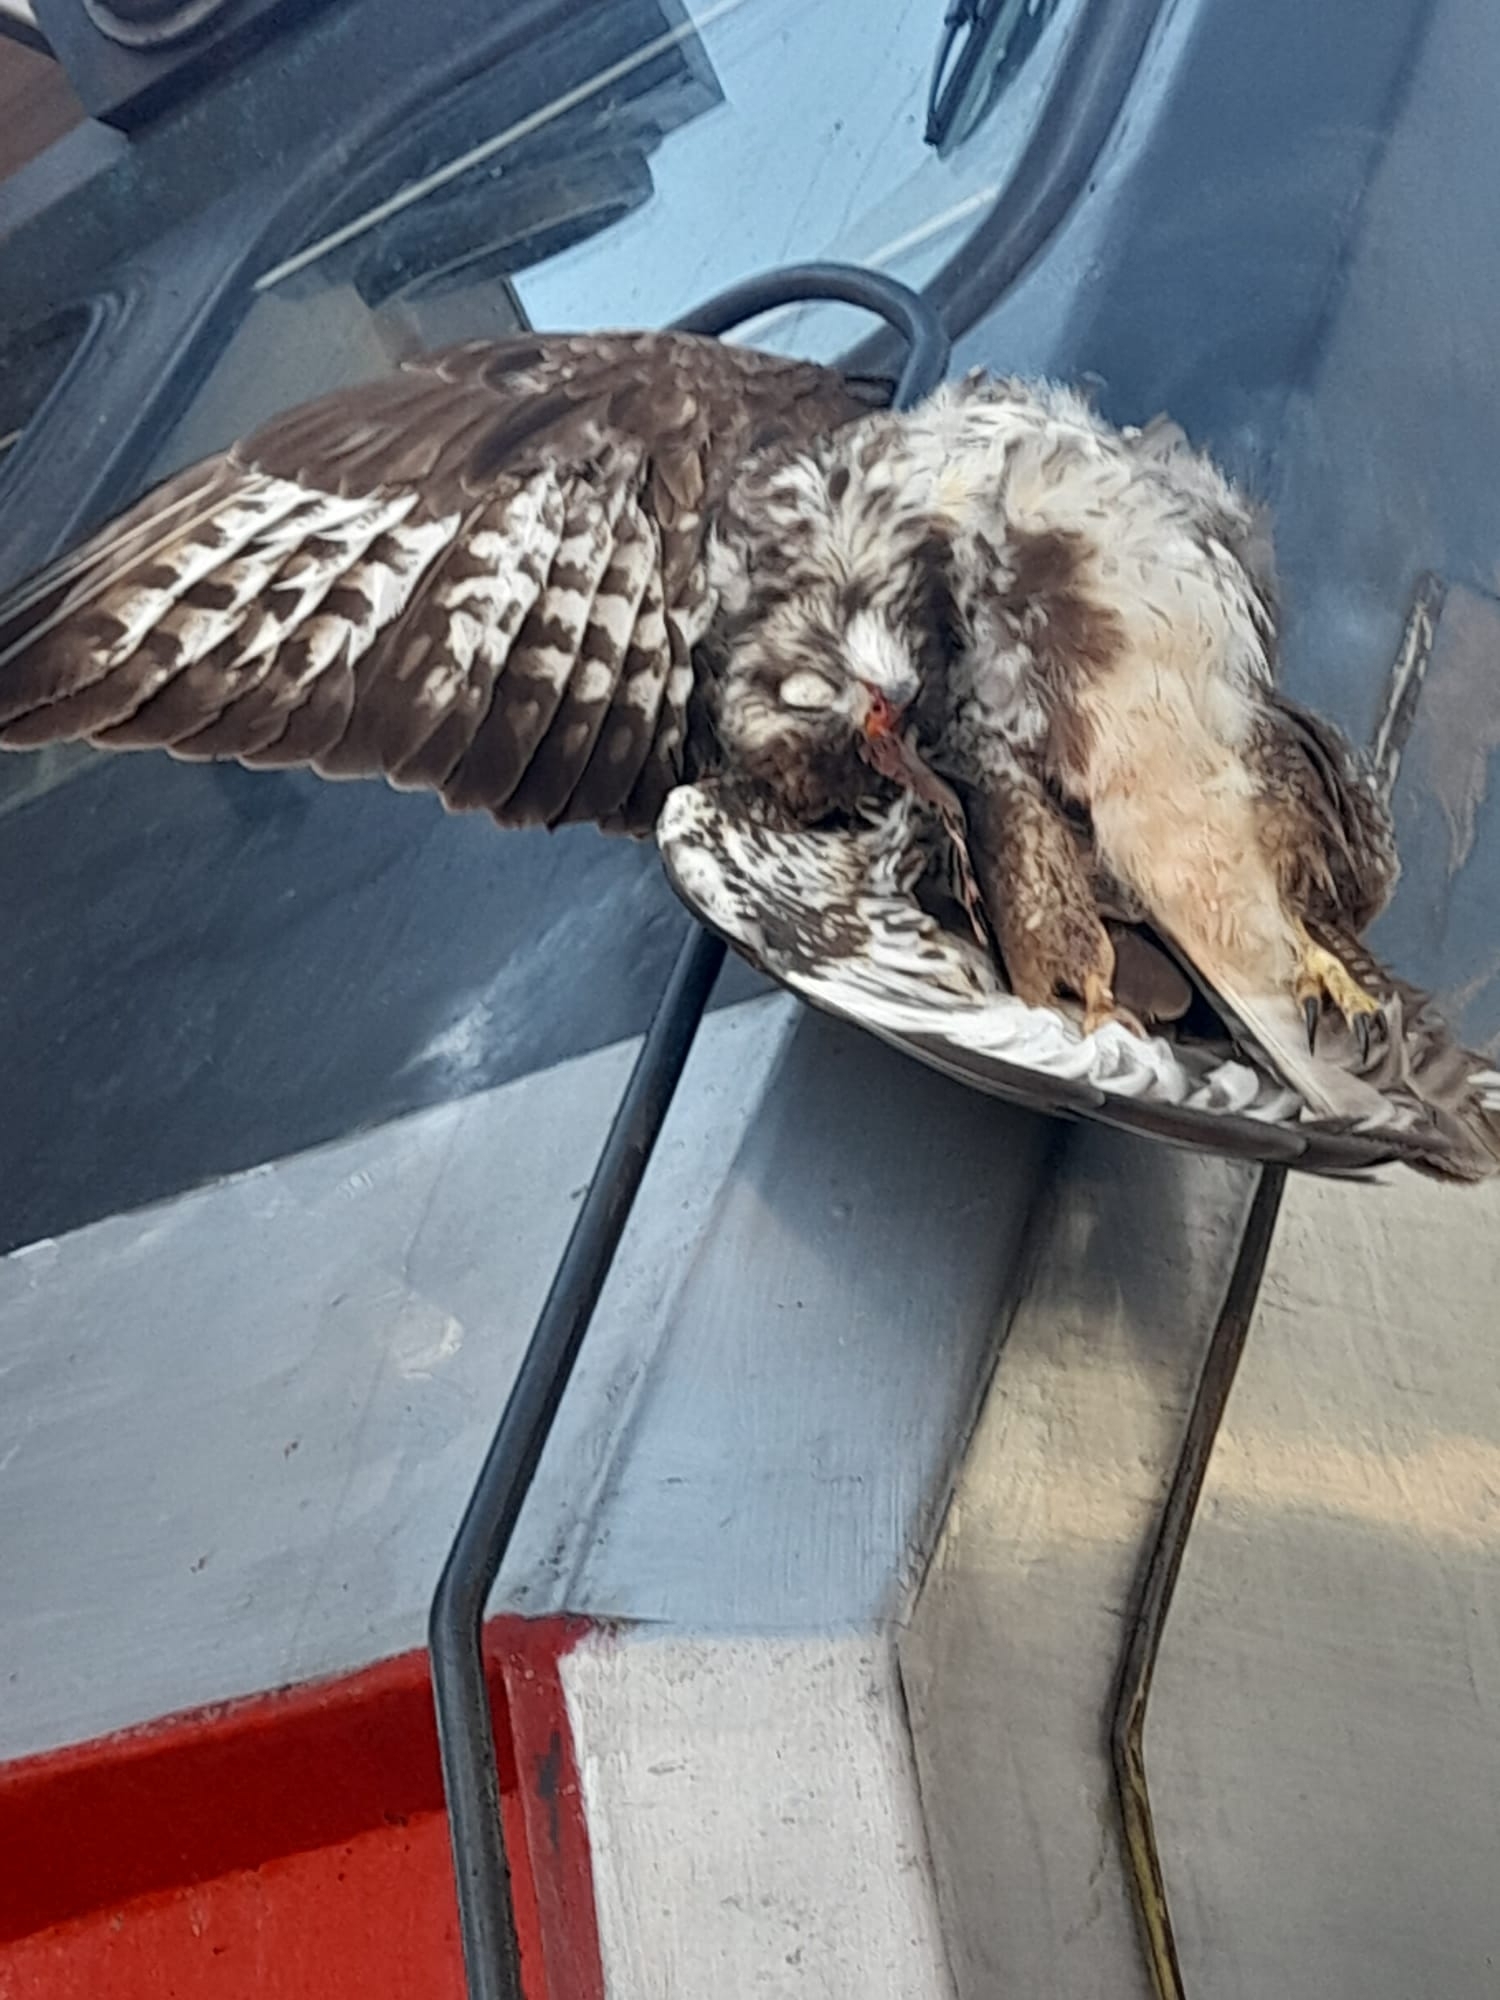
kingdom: Animalia
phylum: Chordata
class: Aves
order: Accipitriformes
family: Accipitridae
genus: Buteo
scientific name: Buteo buteo
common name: Common buzzard
